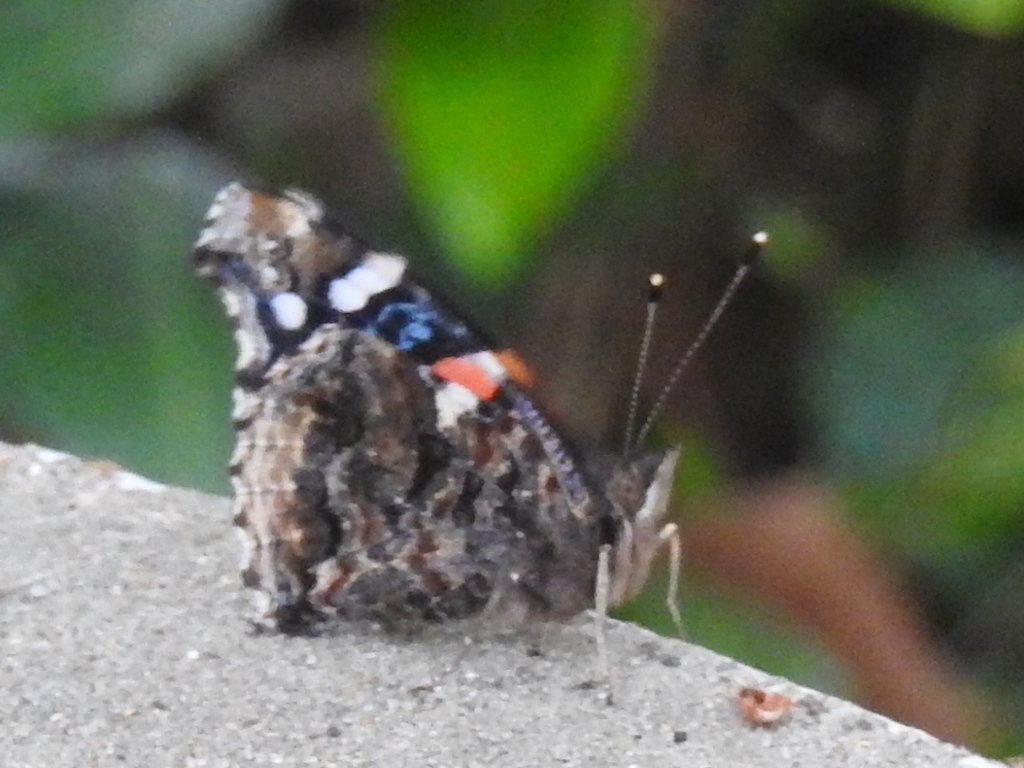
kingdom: Animalia
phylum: Arthropoda
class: Insecta
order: Lepidoptera
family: Nymphalidae
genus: Vanessa
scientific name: Vanessa atalanta
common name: Red admiral
